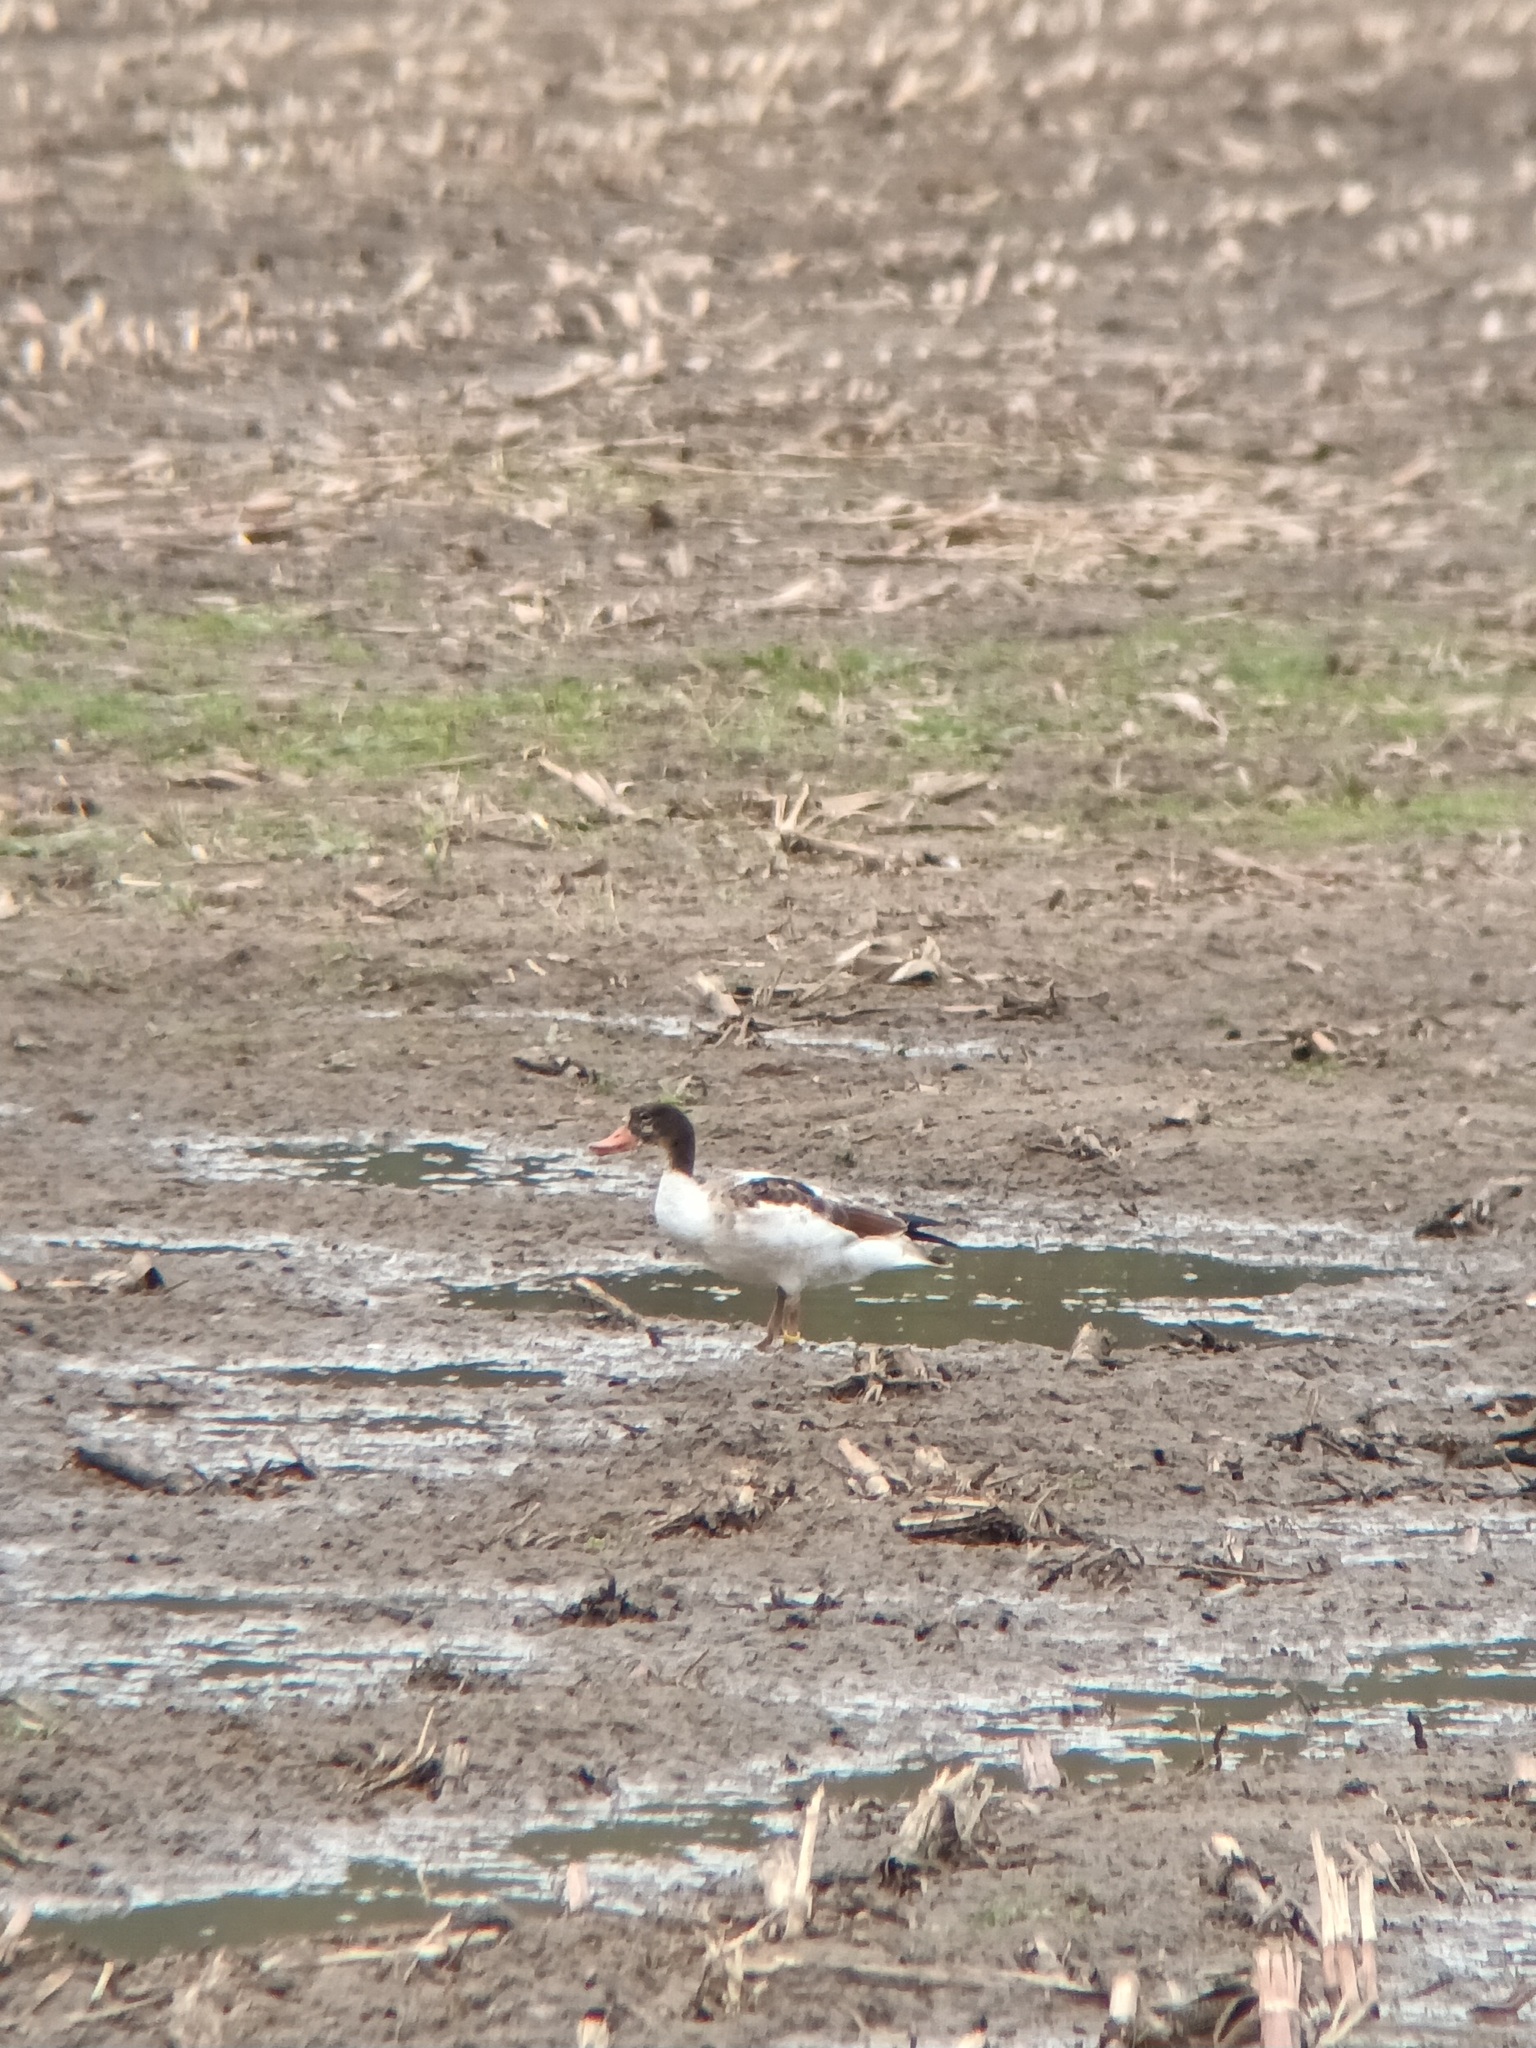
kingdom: Animalia
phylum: Chordata
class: Aves
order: Anseriformes
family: Anatidae
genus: Tadorna
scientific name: Tadorna tadorna
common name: Common shelduck
